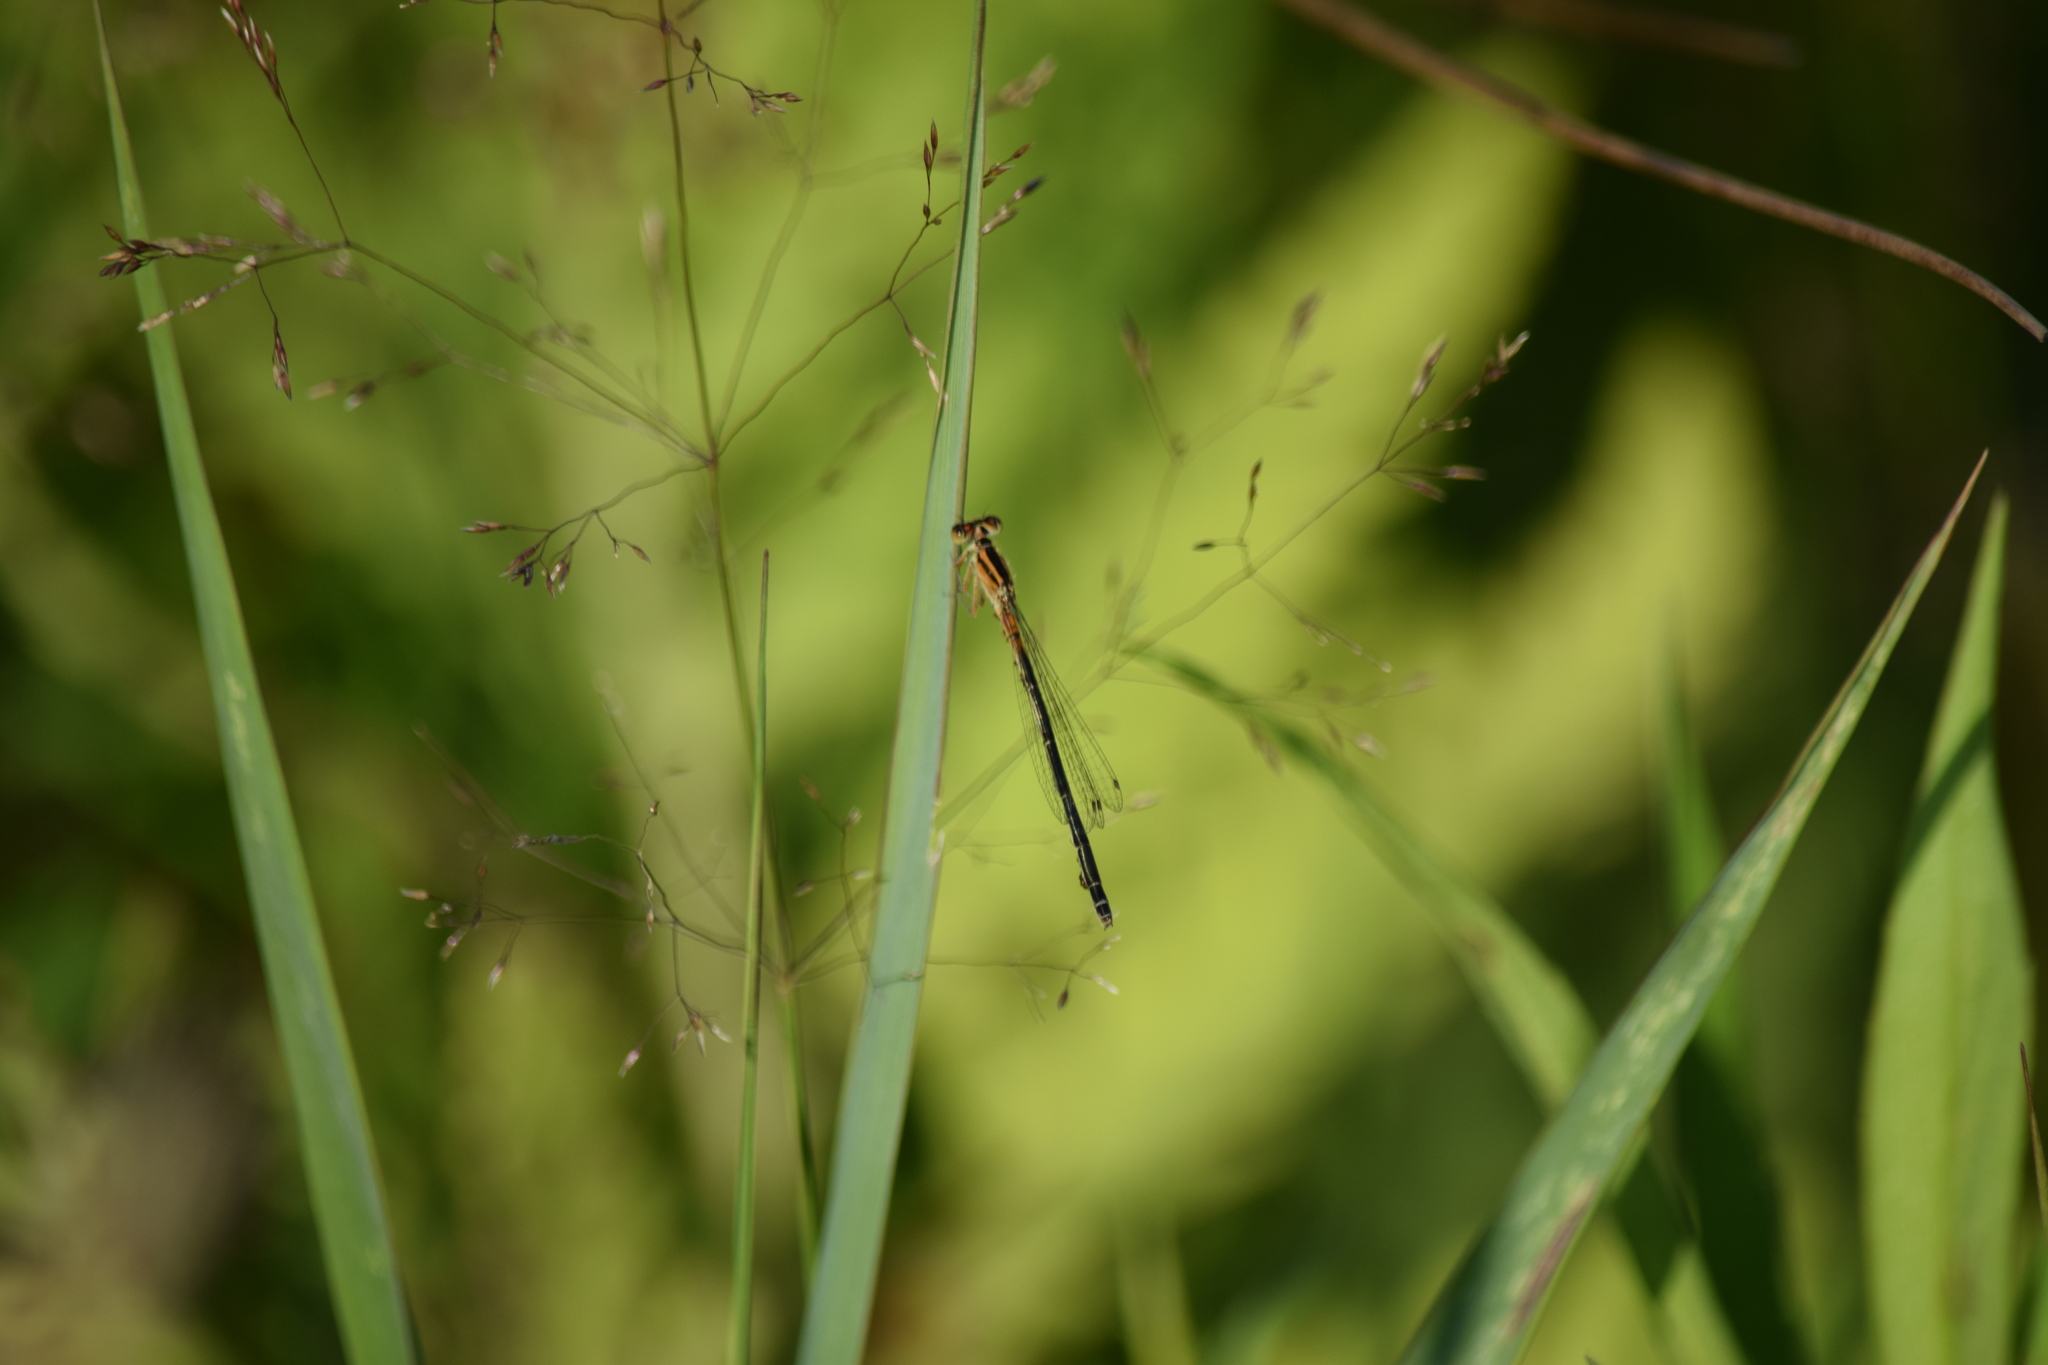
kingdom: Animalia
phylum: Arthropoda
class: Insecta
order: Odonata
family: Coenagrionidae
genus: Ischnura
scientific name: Ischnura verticalis
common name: Eastern forktail
